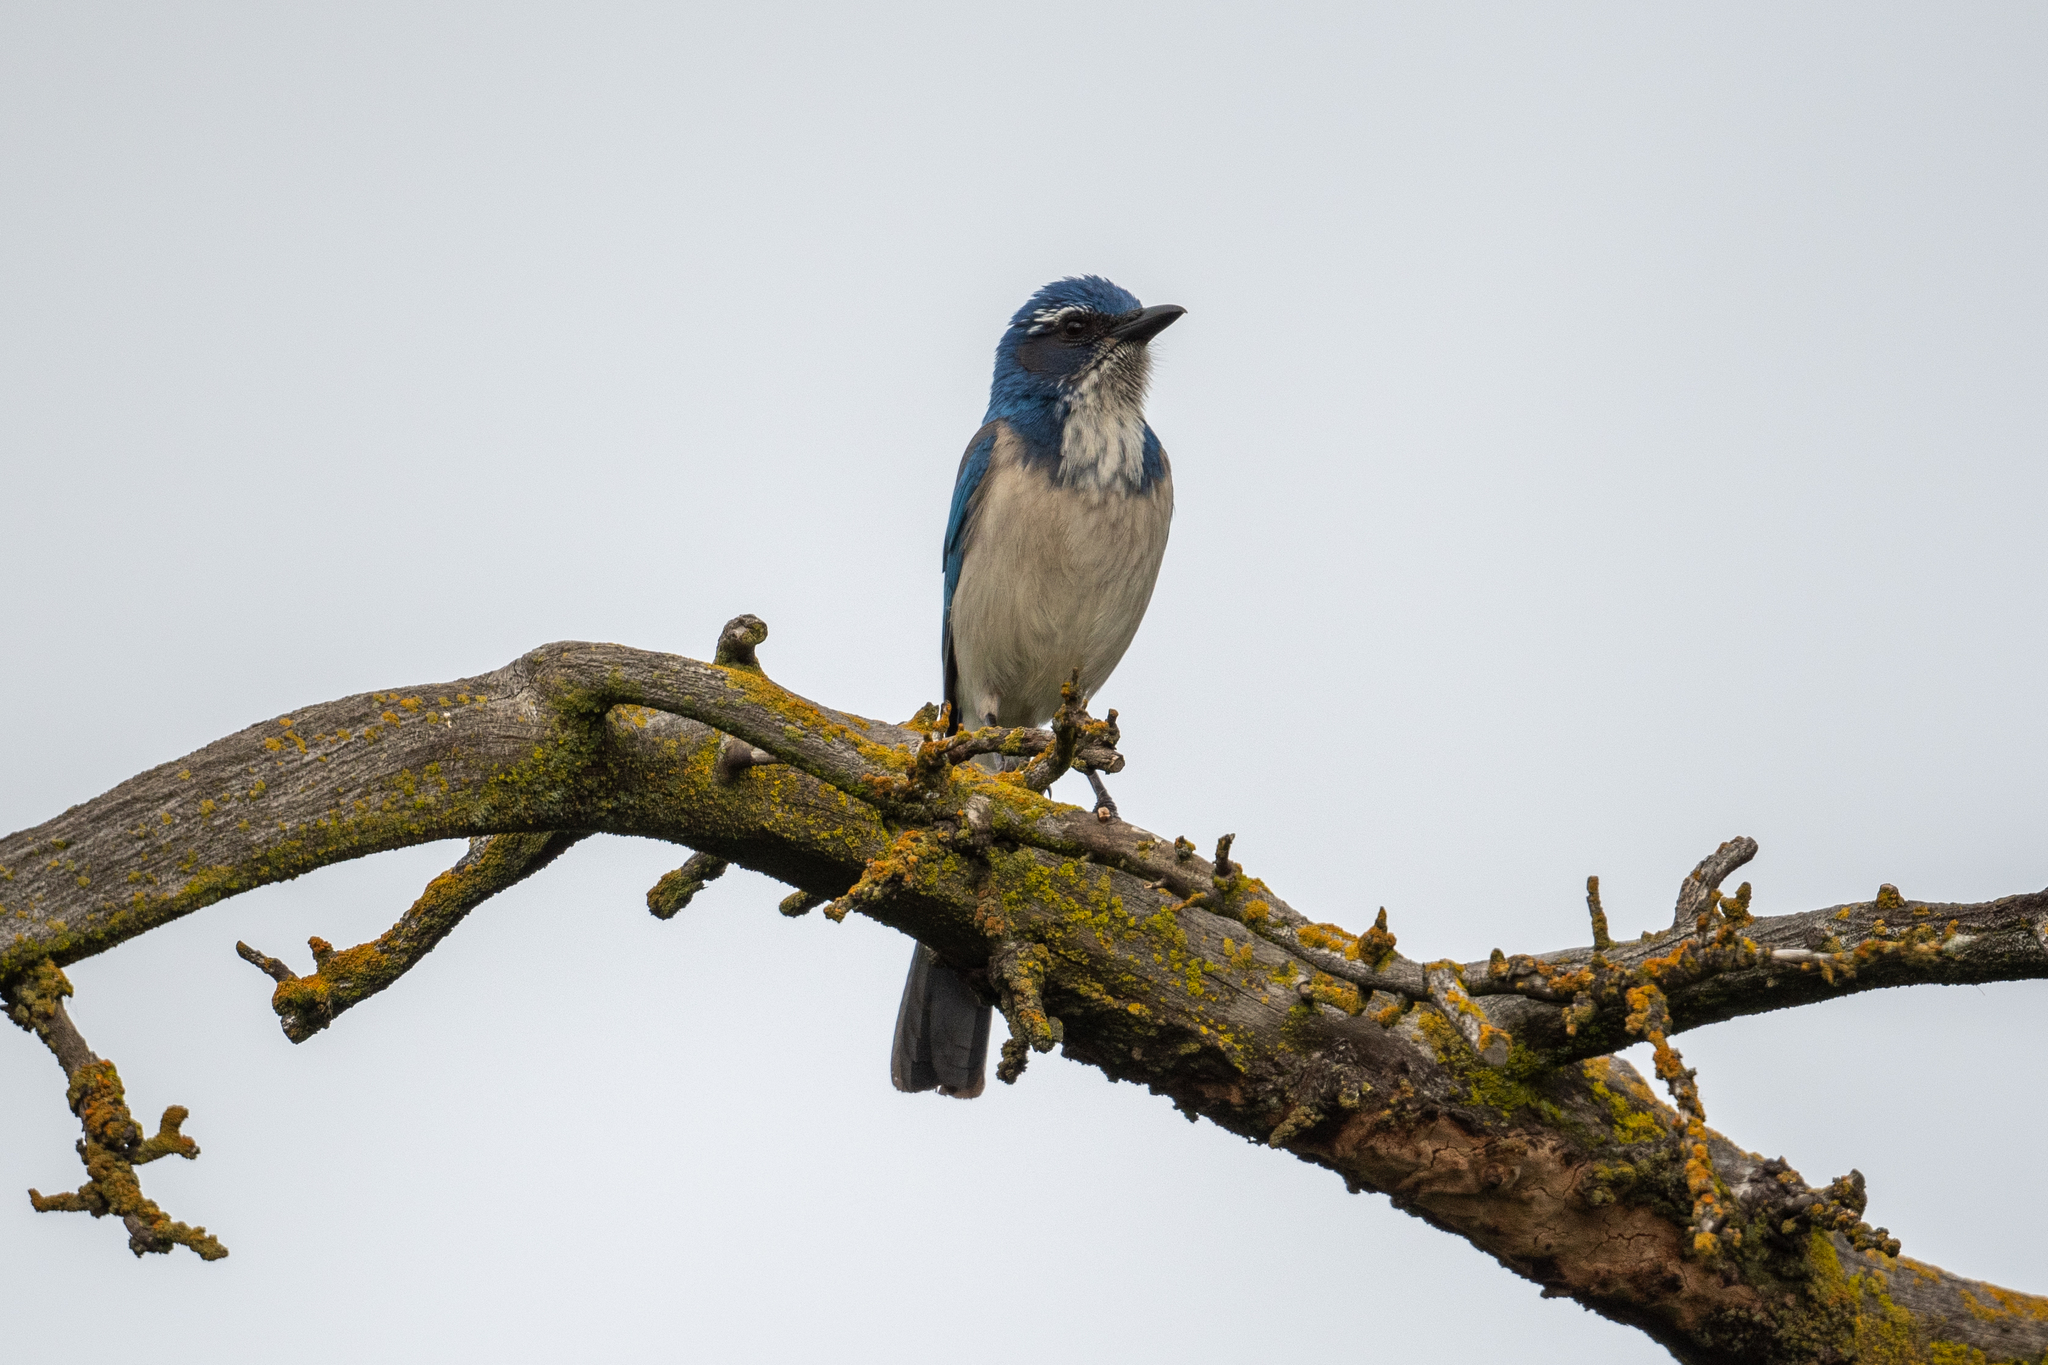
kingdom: Animalia
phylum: Chordata
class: Aves
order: Passeriformes
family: Corvidae
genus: Aphelocoma
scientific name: Aphelocoma californica
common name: California scrub-jay
